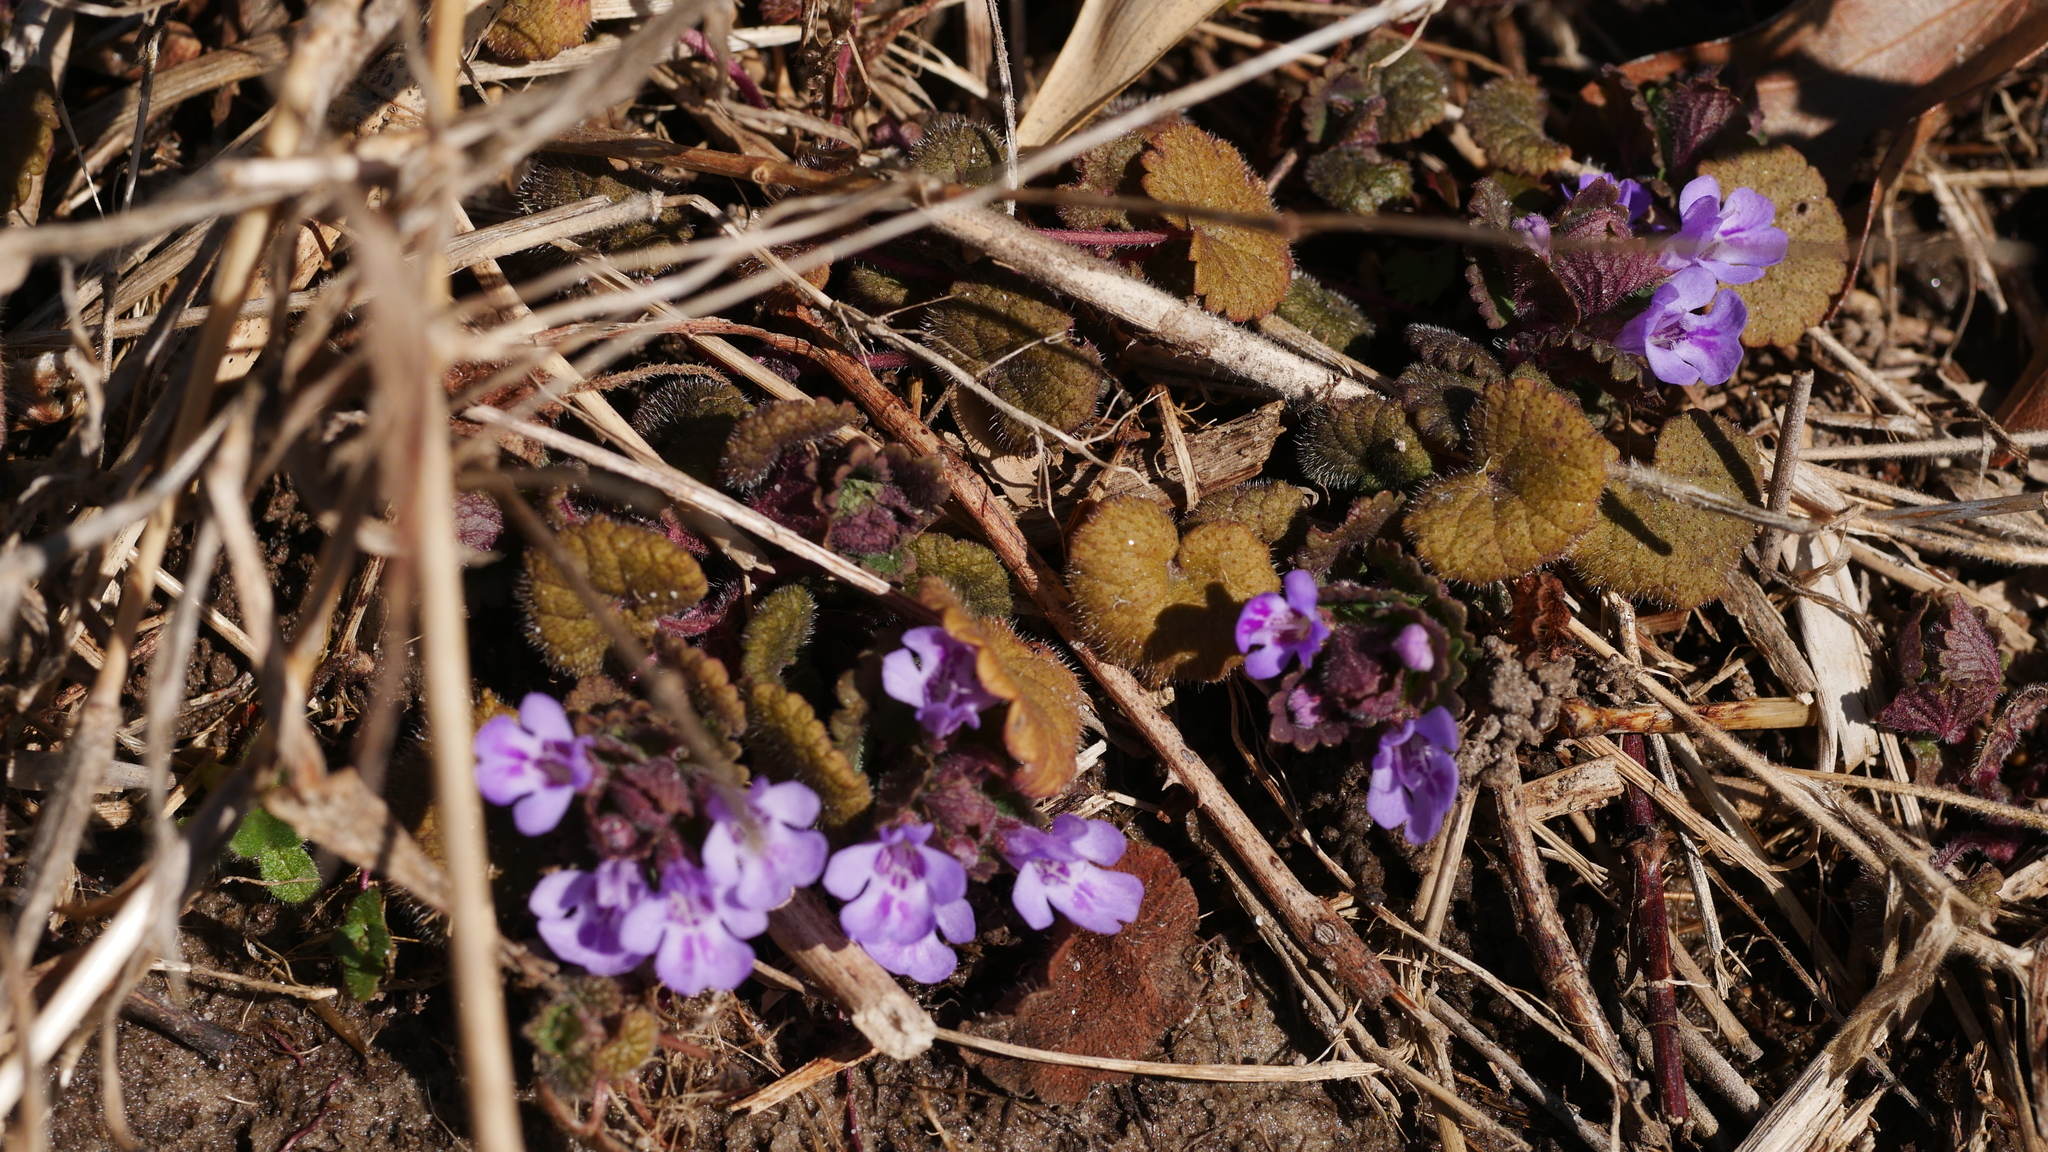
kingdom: Plantae
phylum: Tracheophyta
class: Magnoliopsida
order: Lamiales
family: Lamiaceae
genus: Glechoma
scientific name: Glechoma hederacea
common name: Ground ivy
